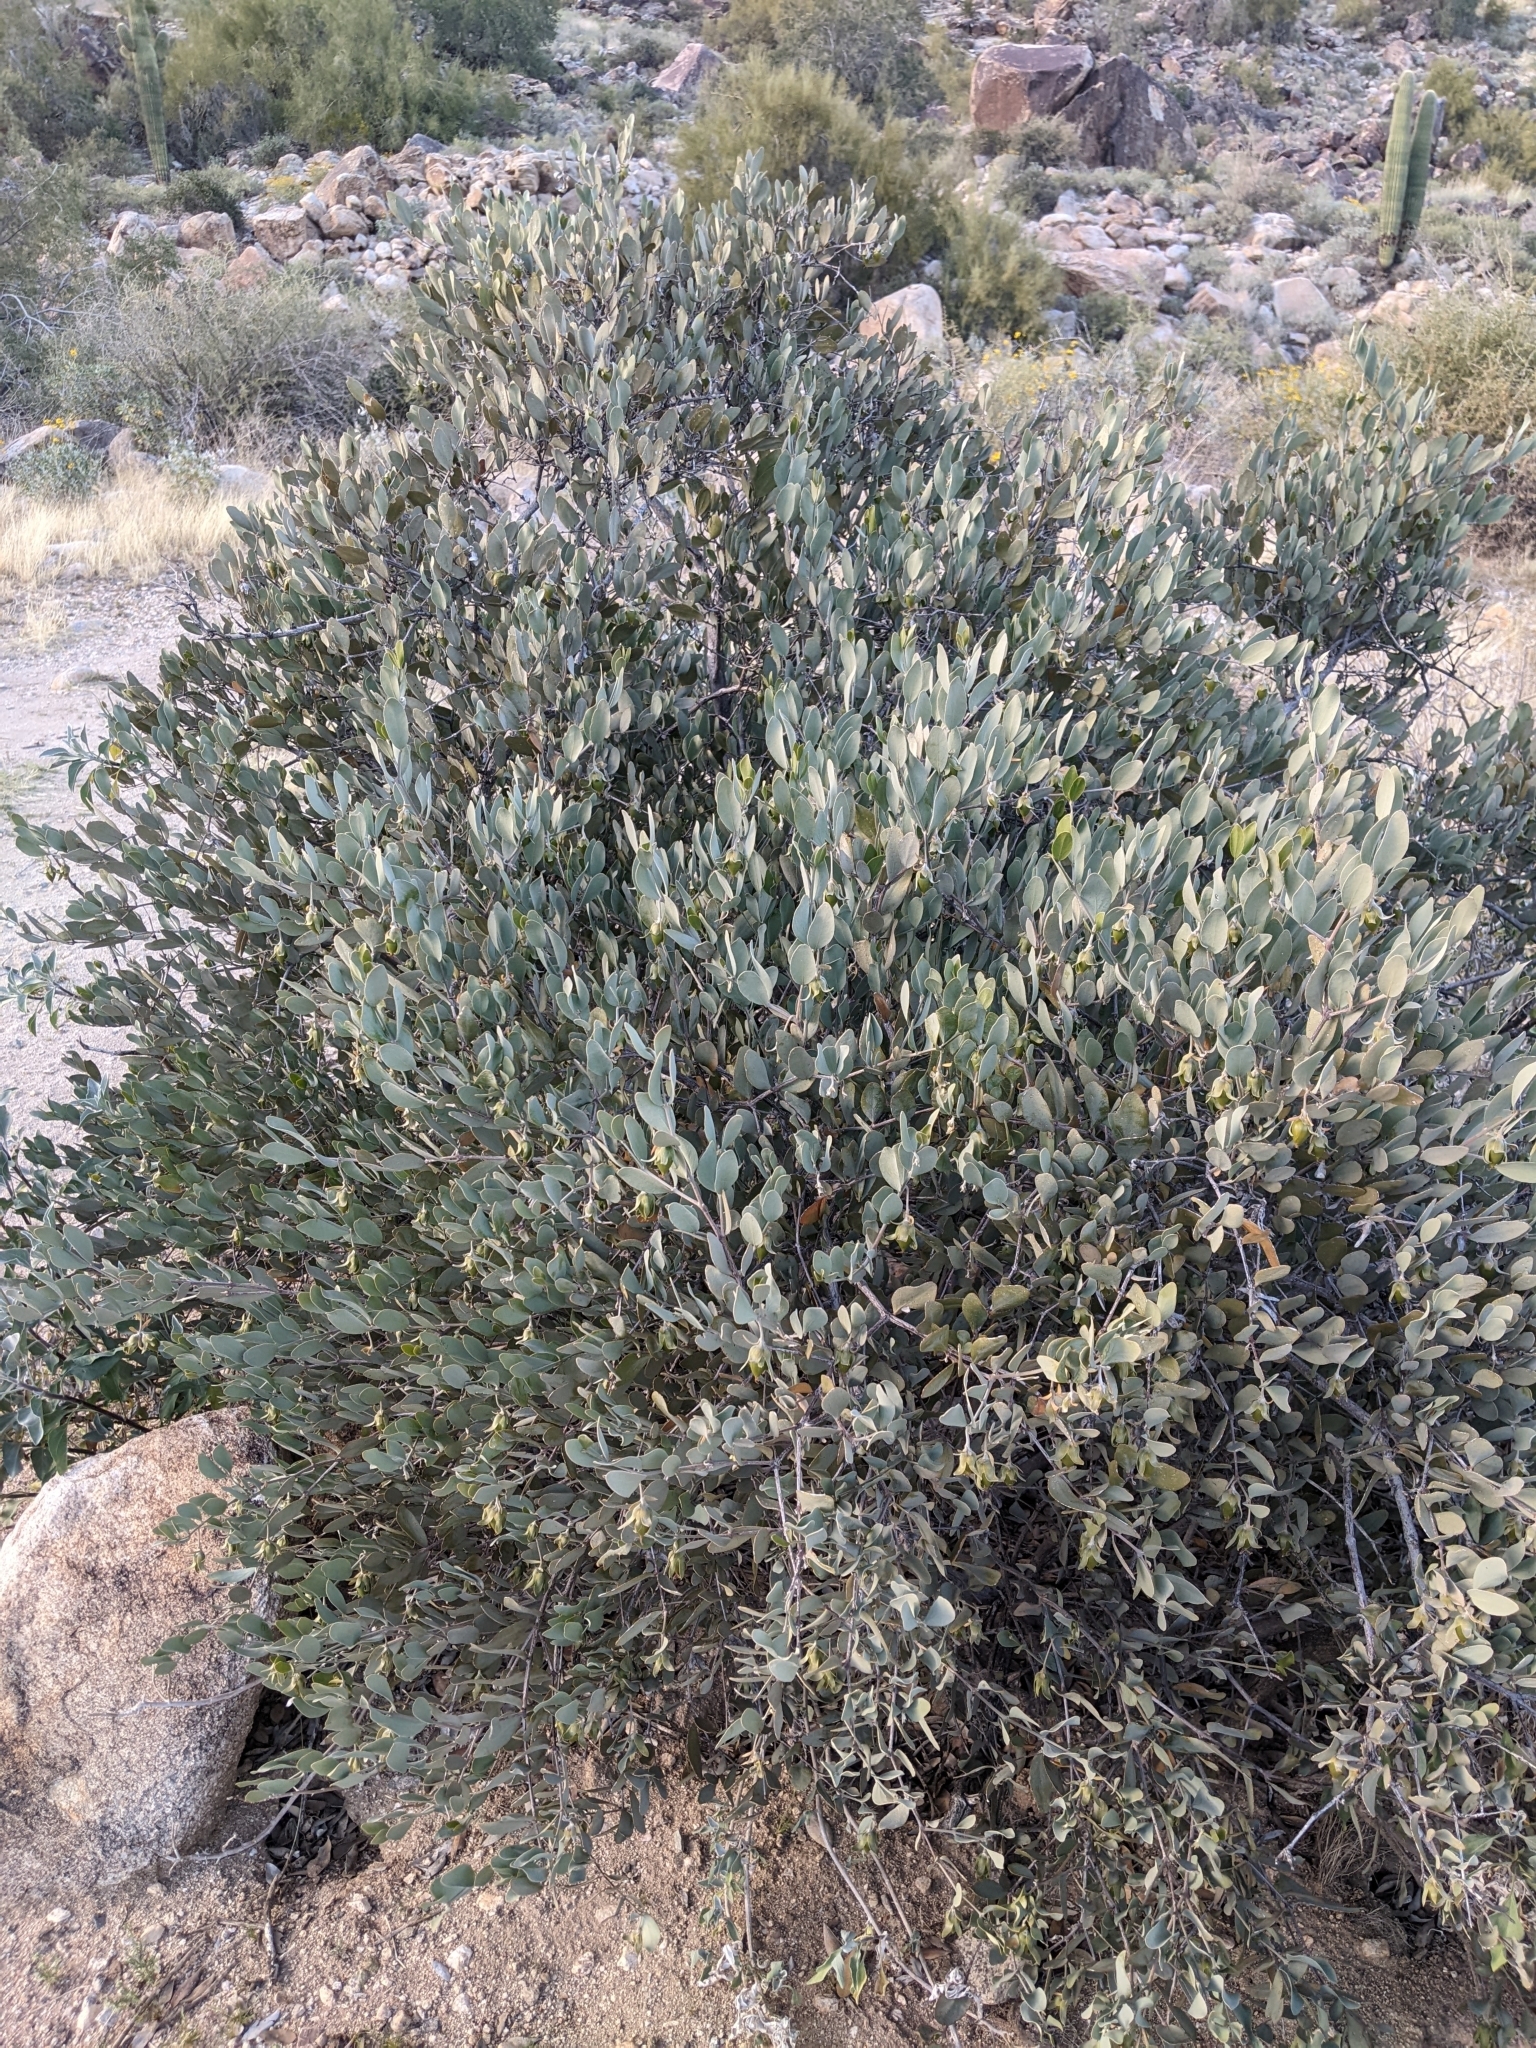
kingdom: Plantae
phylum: Tracheophyta
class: Magnoliopsida
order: Caryophyllales
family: Simmondsiaceae
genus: Simmondsia
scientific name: Simmondsia chinensis
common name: Jojoba
